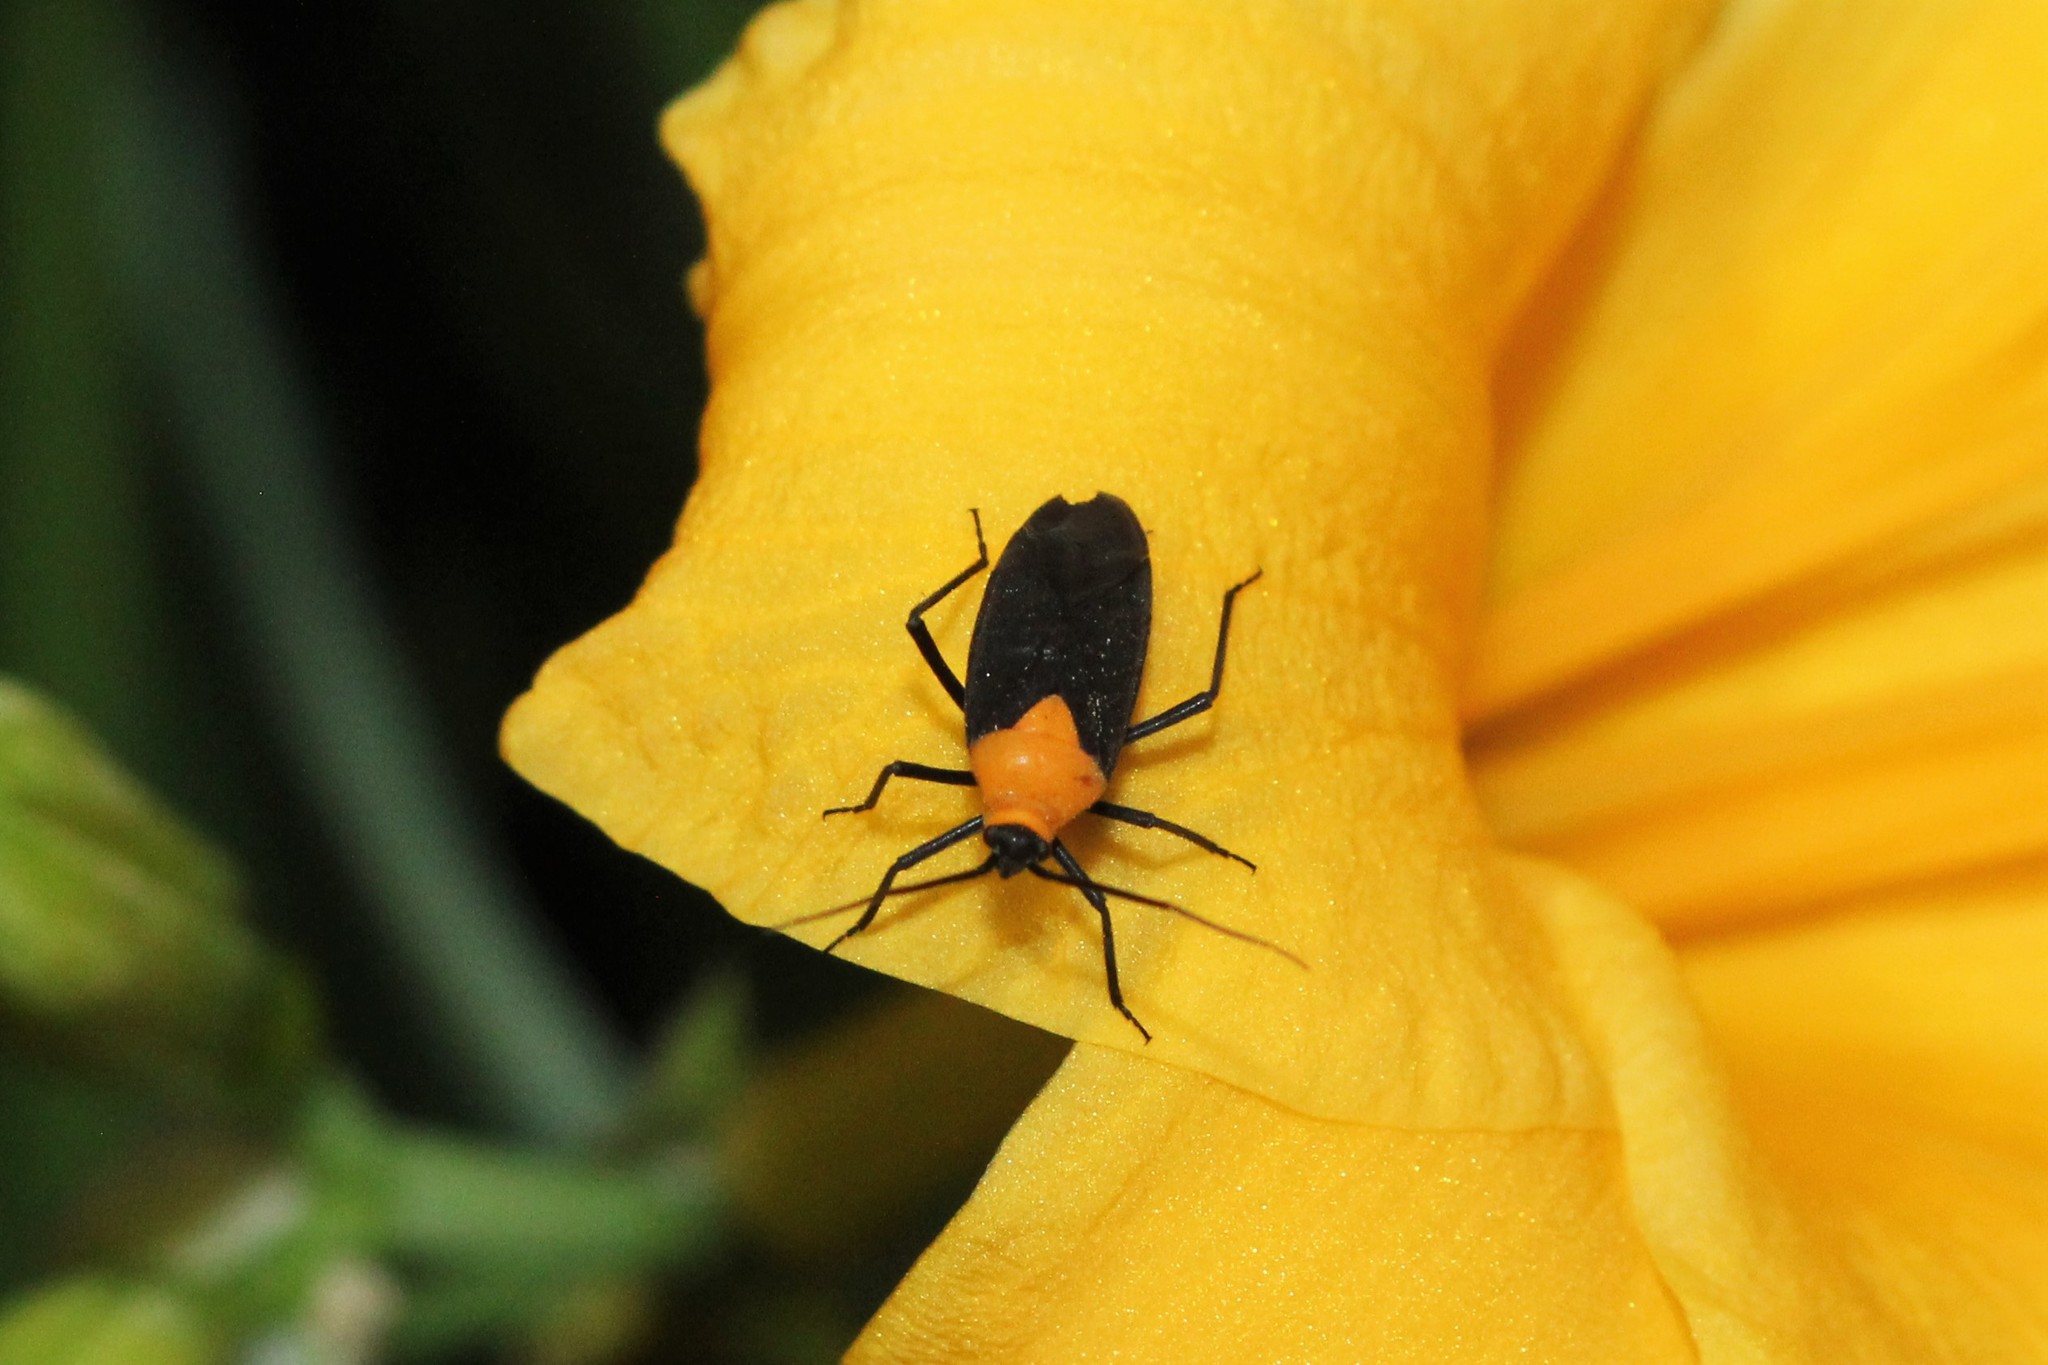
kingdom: Animalia
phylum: Arthropoda
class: Insecta
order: Hemiptera
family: Miridae
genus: Prepops
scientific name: Prepops insitivus
